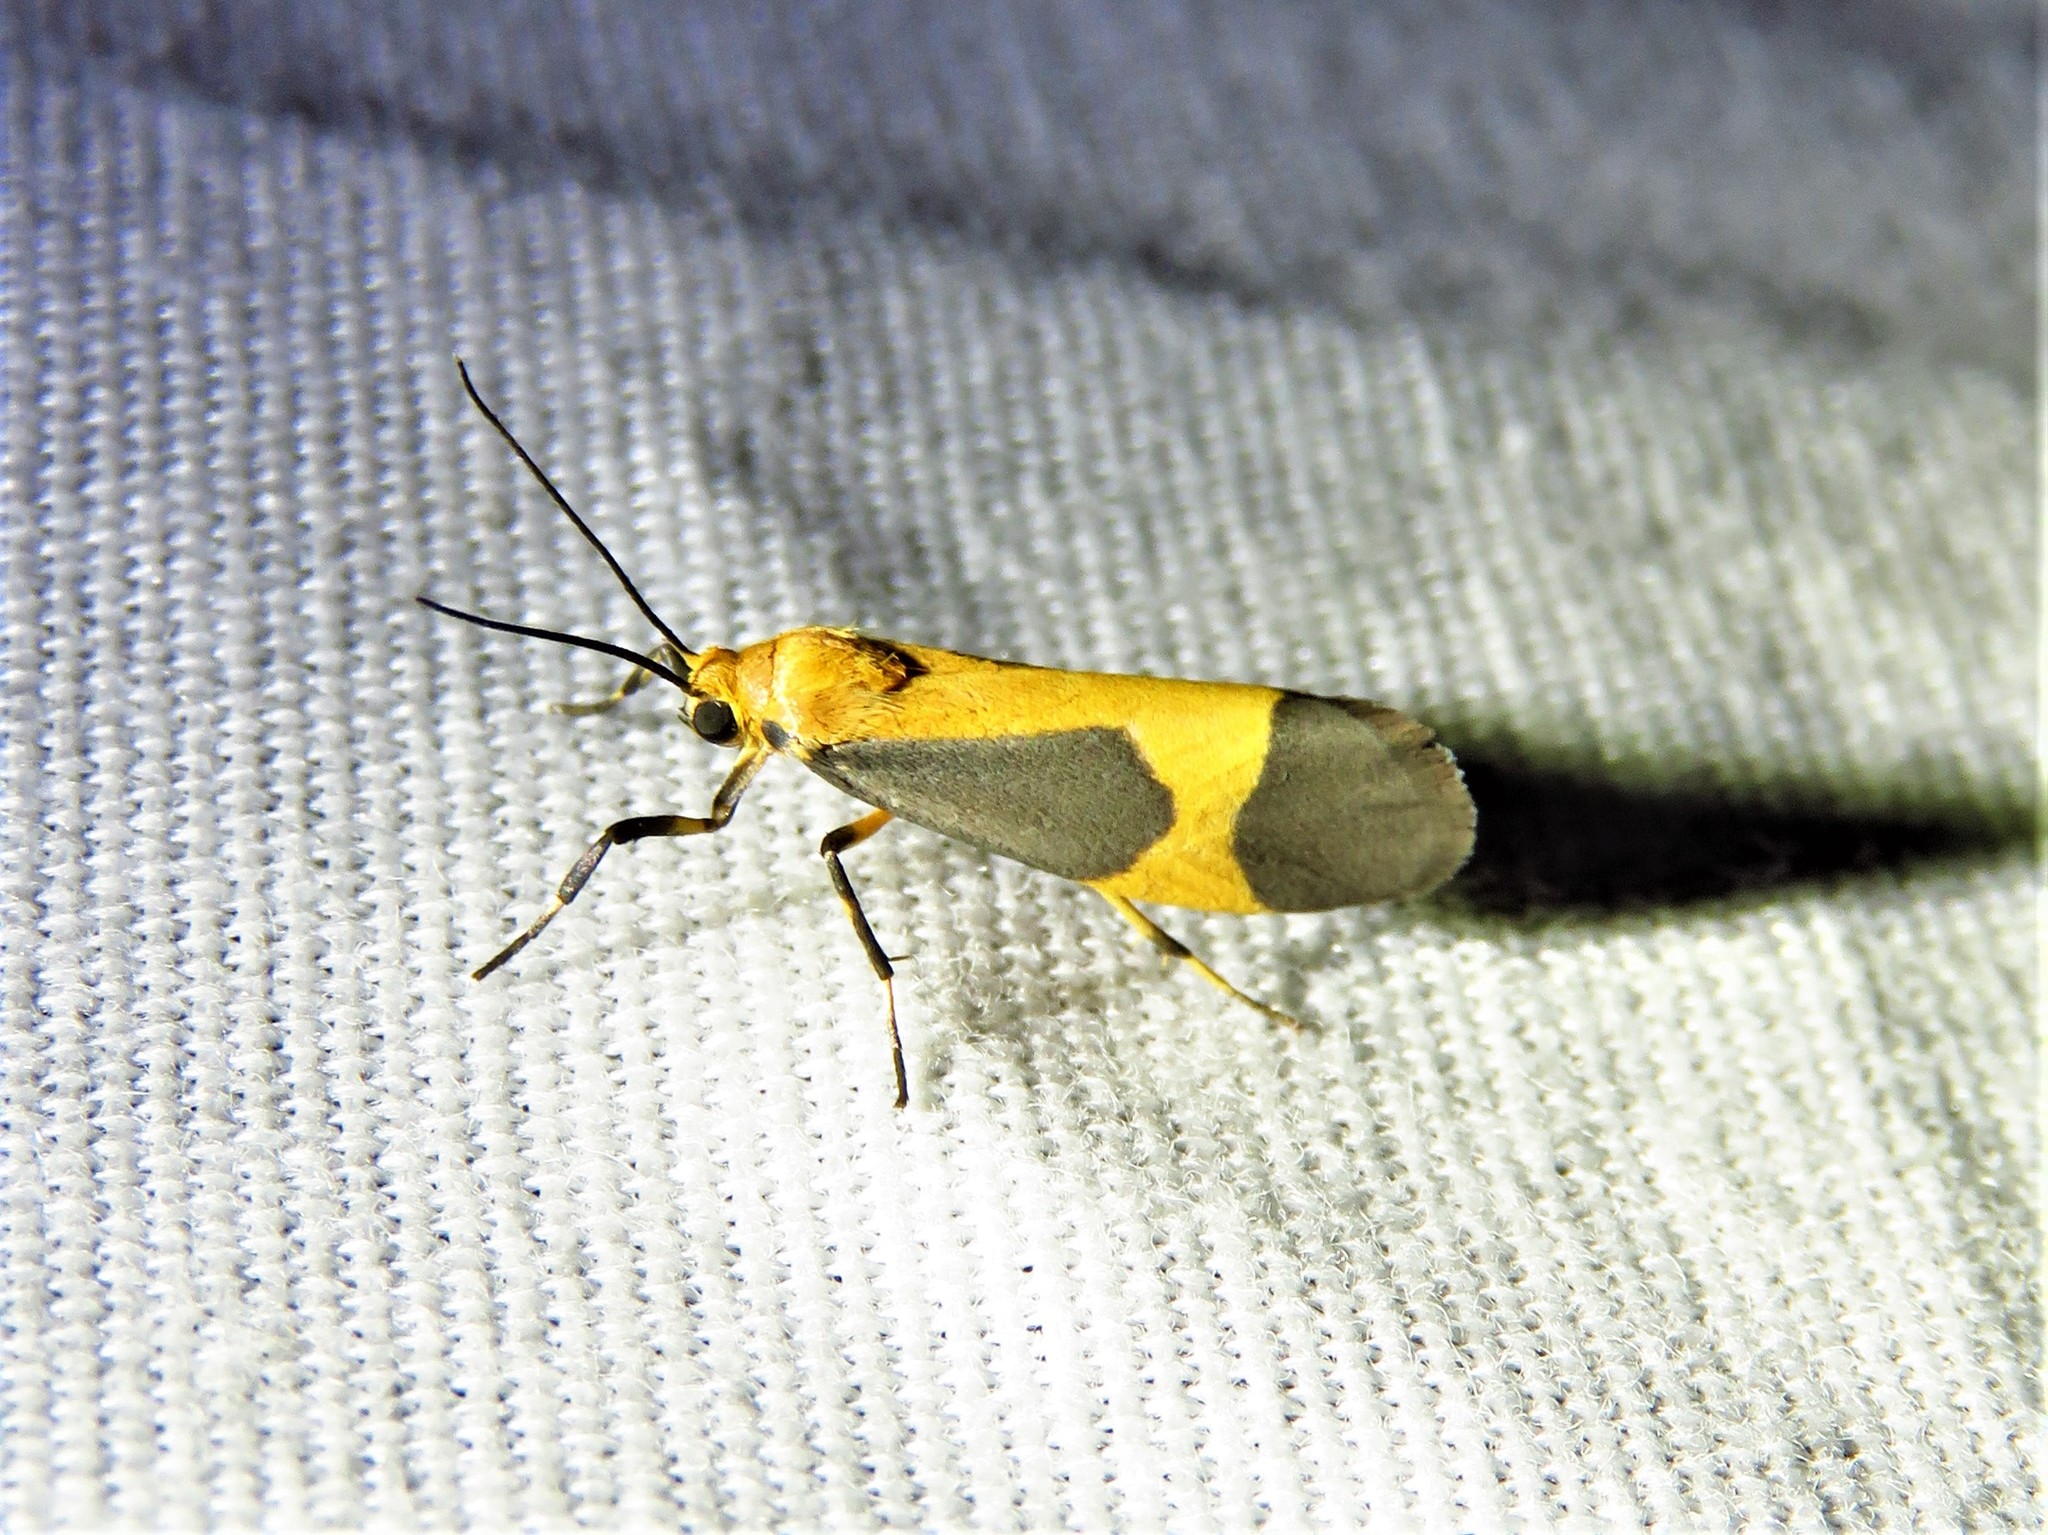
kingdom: Animalia
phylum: Arthropoda
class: Insecta
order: Lepidoptera
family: Erebidae
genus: Cisthene
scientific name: Cisthene picta
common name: Pictured lichen moth
